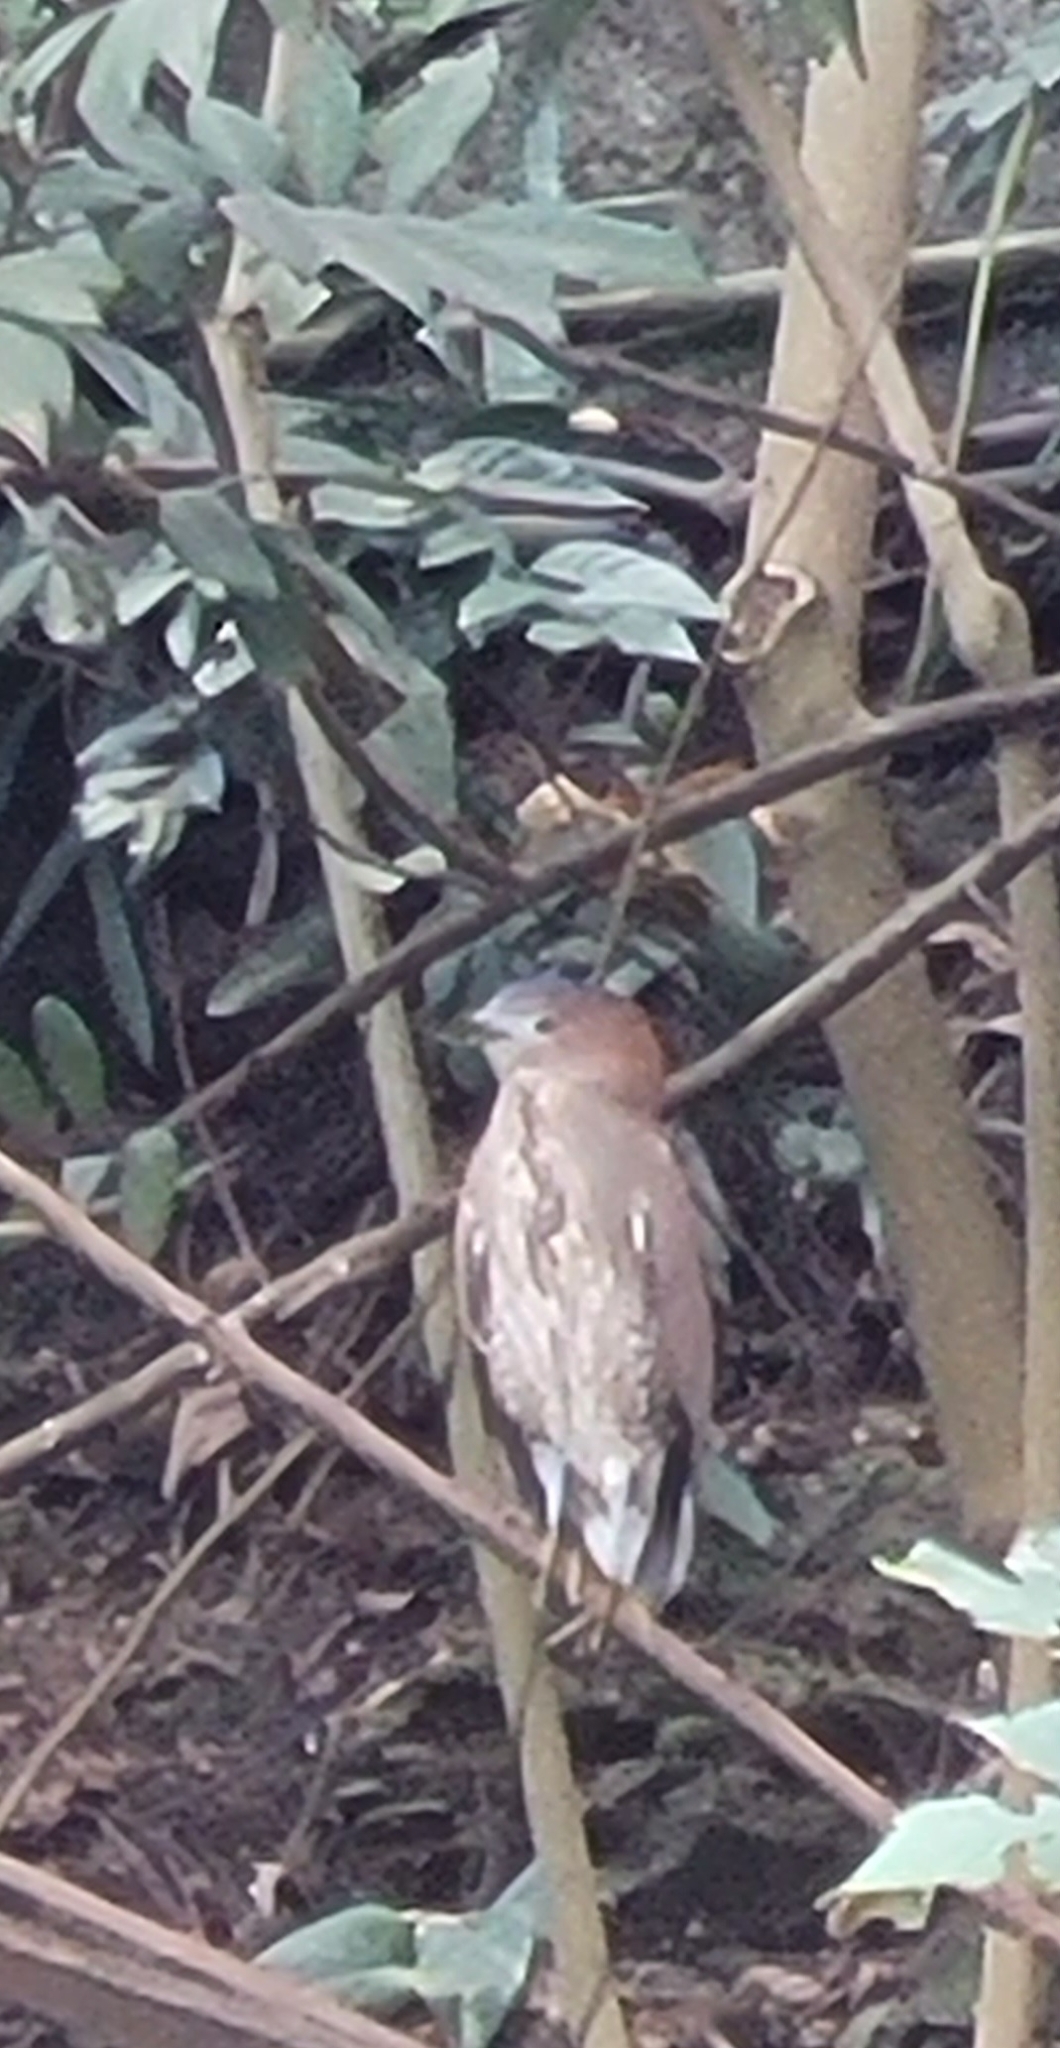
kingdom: Animalia
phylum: Chordata
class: Aves
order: Pelecaniformes
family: Ardeidae
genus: Gorsachius
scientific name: Gorsachius melanolophus
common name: Malayan night heron
